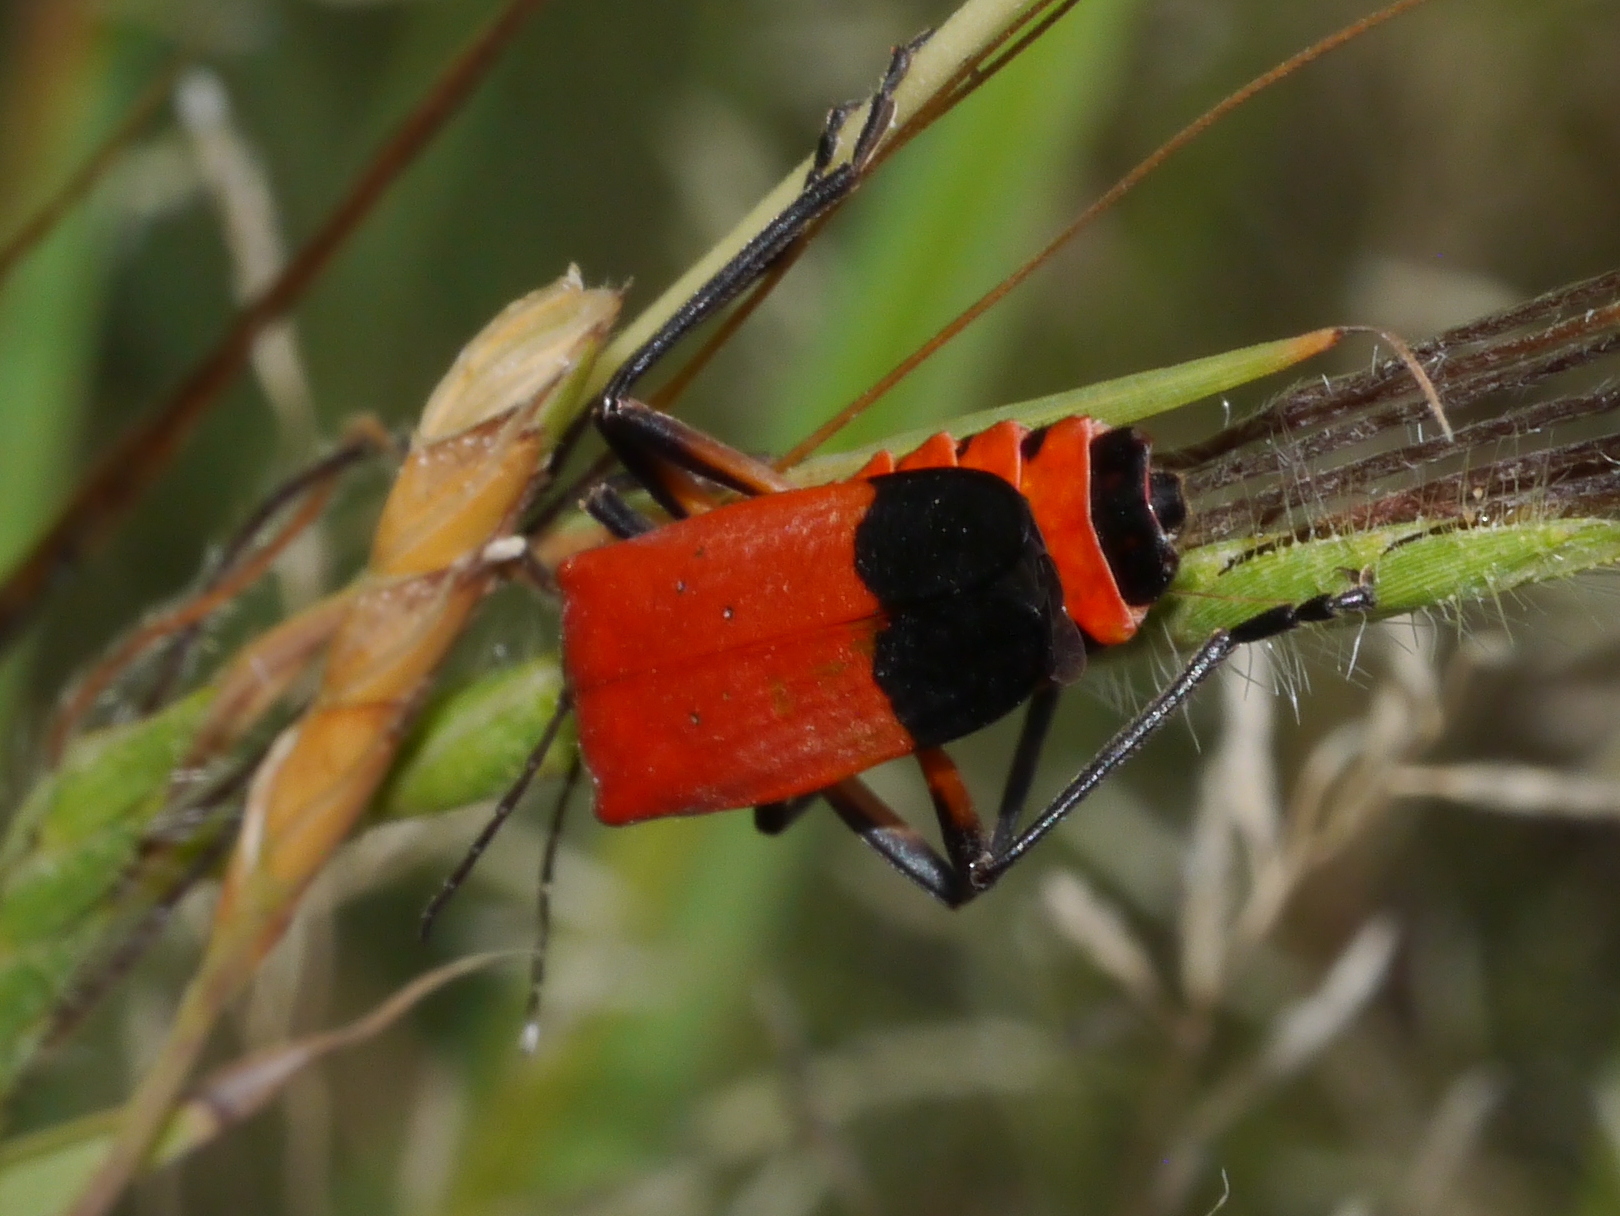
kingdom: Animalia
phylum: Arthropoda
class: Insecta
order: Coleoptera
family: Cantharidae
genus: Chauliognathus
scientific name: Chauliognathus lecontei
